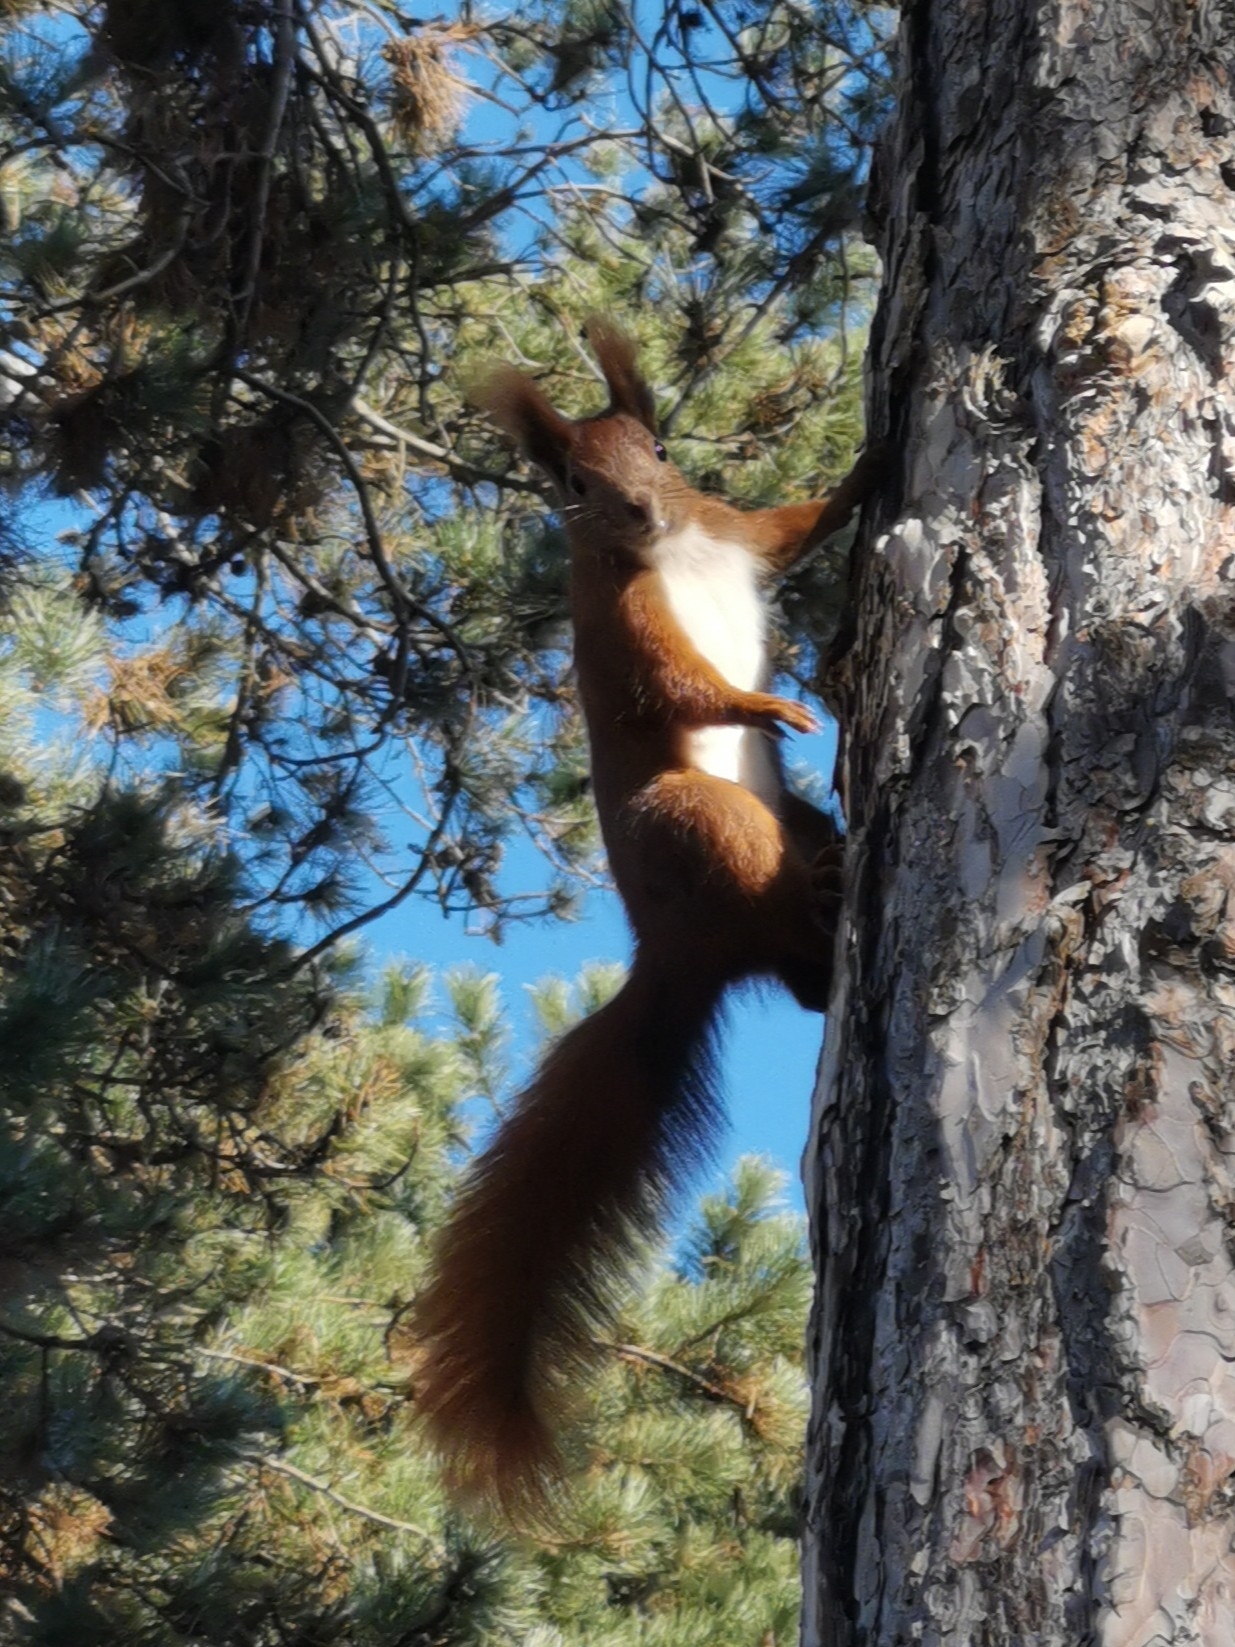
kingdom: Animalia
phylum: Chordata
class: Mammalia
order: Rodentia
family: Sciuridae
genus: Sciurus
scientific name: Sciurus vulgaris
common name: Eurasian red squirrel
